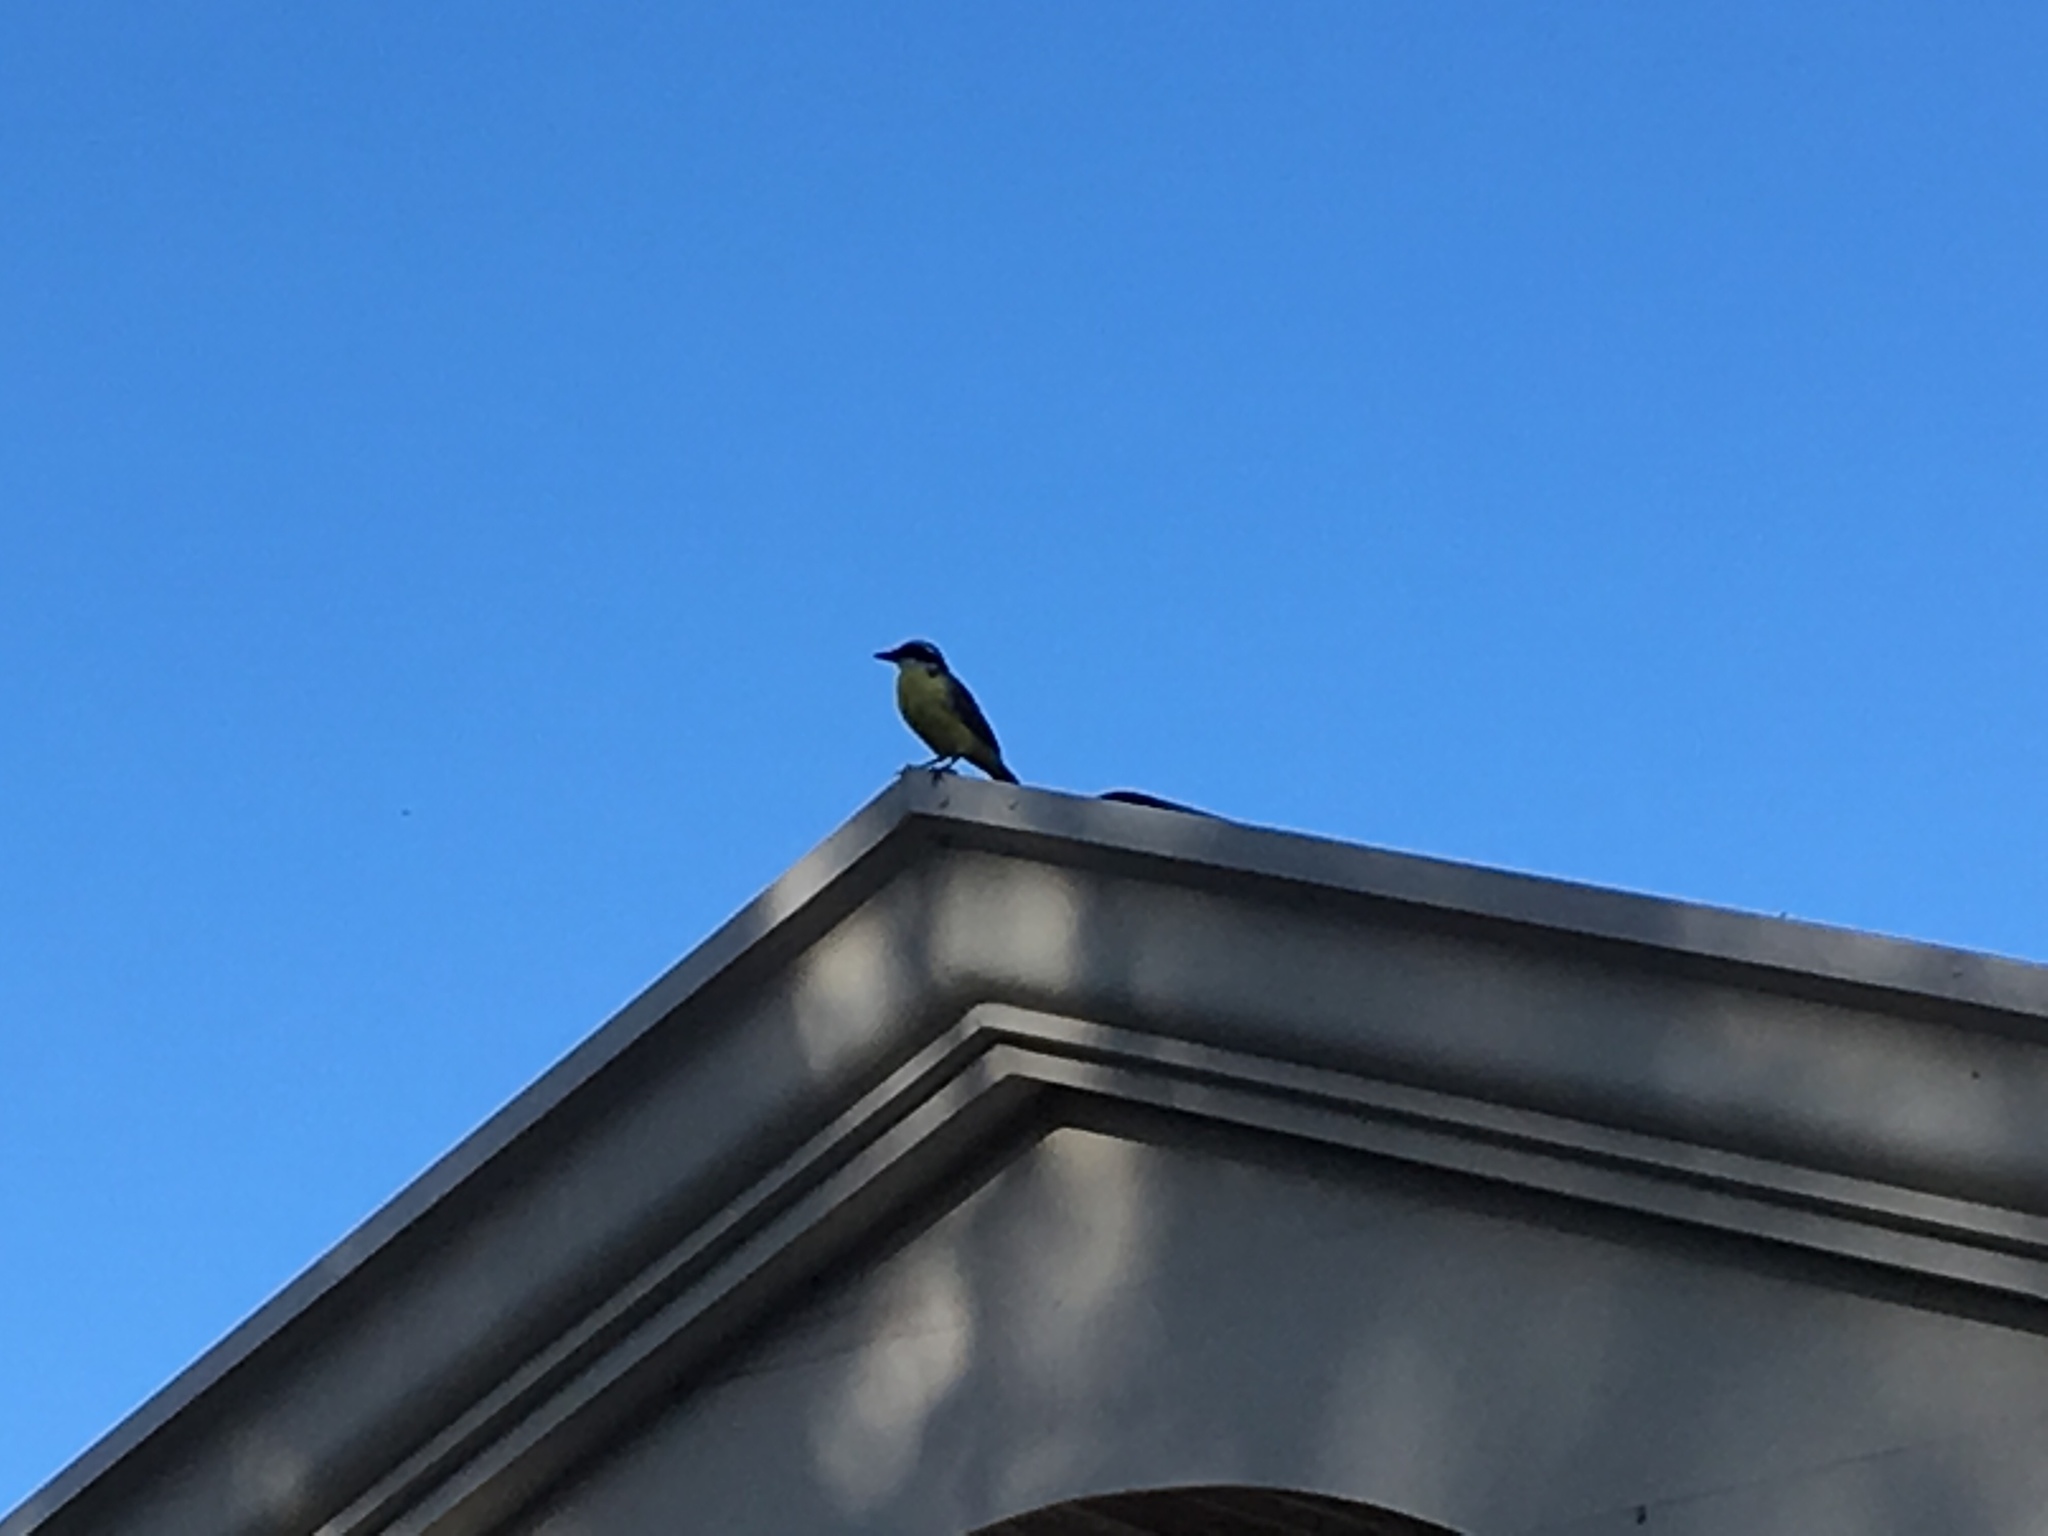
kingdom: Animalia
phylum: Chordata
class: Aves
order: Passeriformes
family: Tyrannidae
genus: Myiozetetes
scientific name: Myiozetetes similis
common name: Social flycatcher
